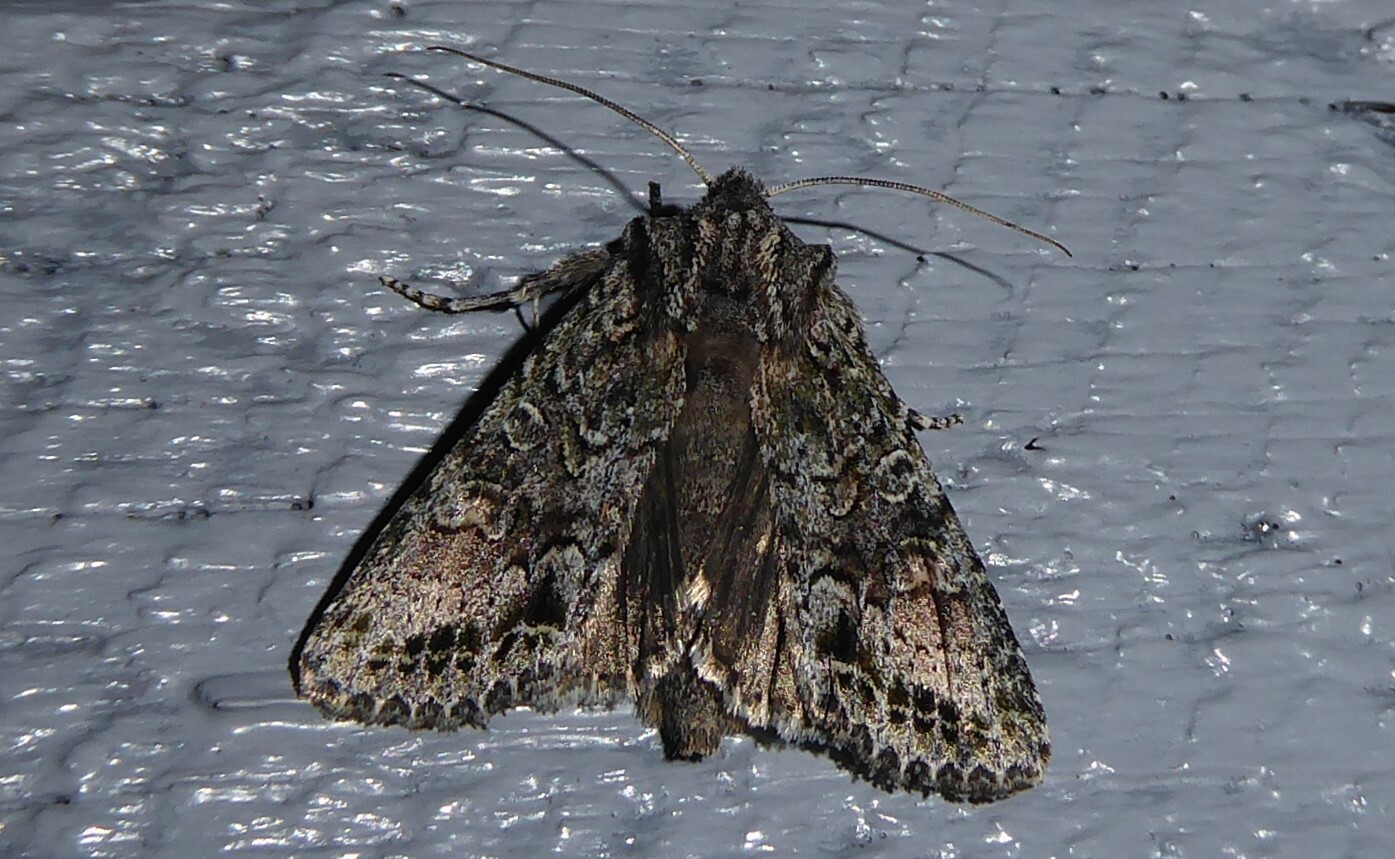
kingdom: Animalia
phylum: Arthropoda
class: Insecta
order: Lepidoptera
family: Noctuidae
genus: Ichneutica
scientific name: Ichneutica mutans
